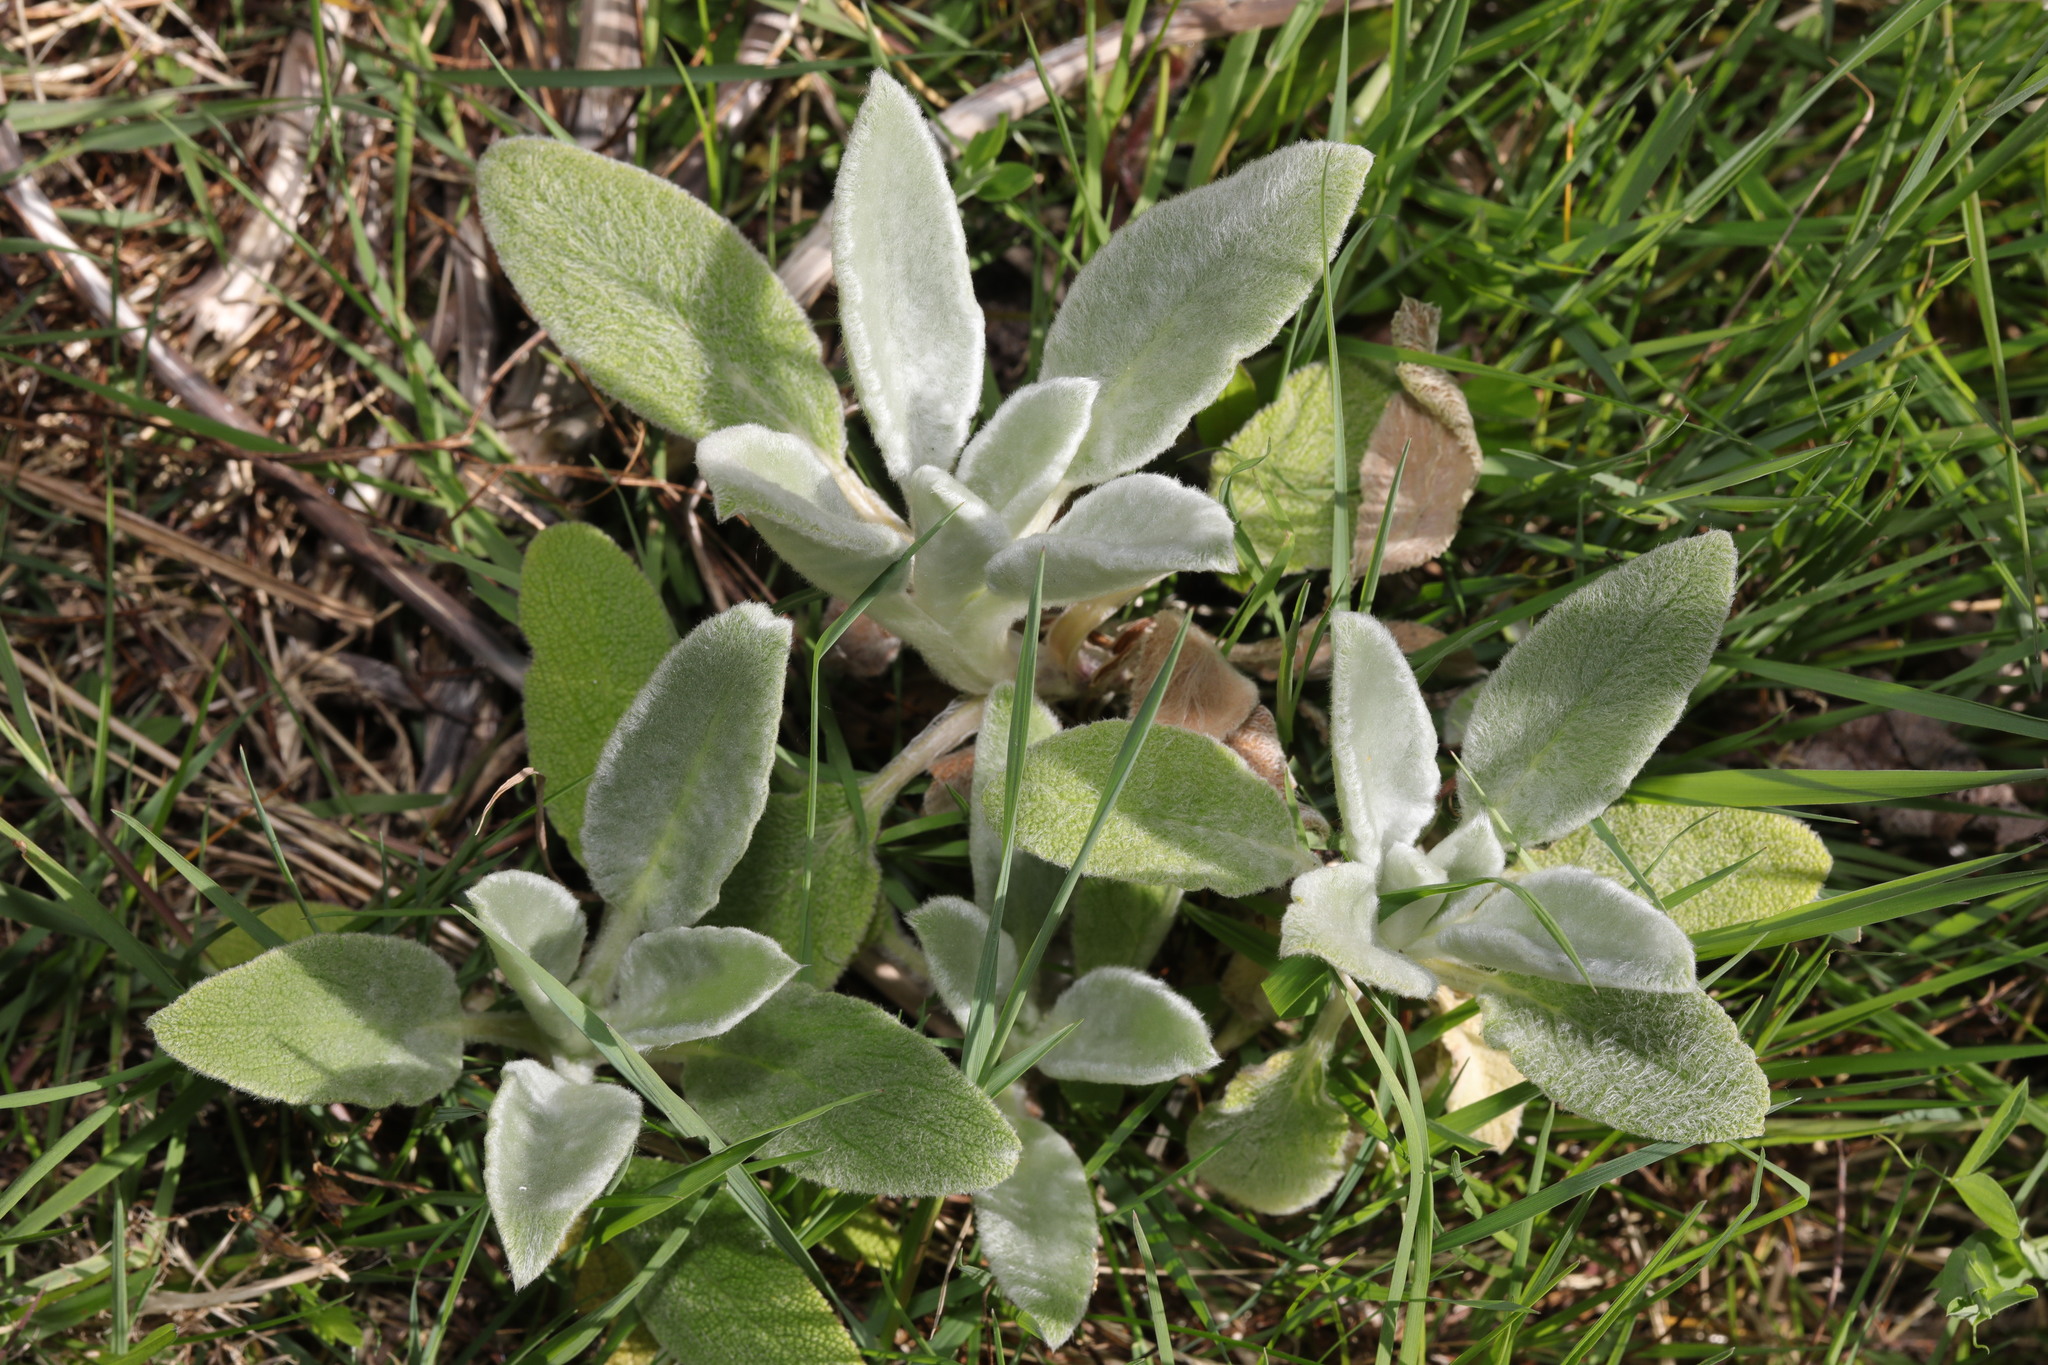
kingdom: Plantae
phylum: Tracheophyta
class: Magnoliopsida
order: Lamiales
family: Lamiaceae
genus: Stachys
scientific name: Stachys byzantina
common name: Lamb's-ear
